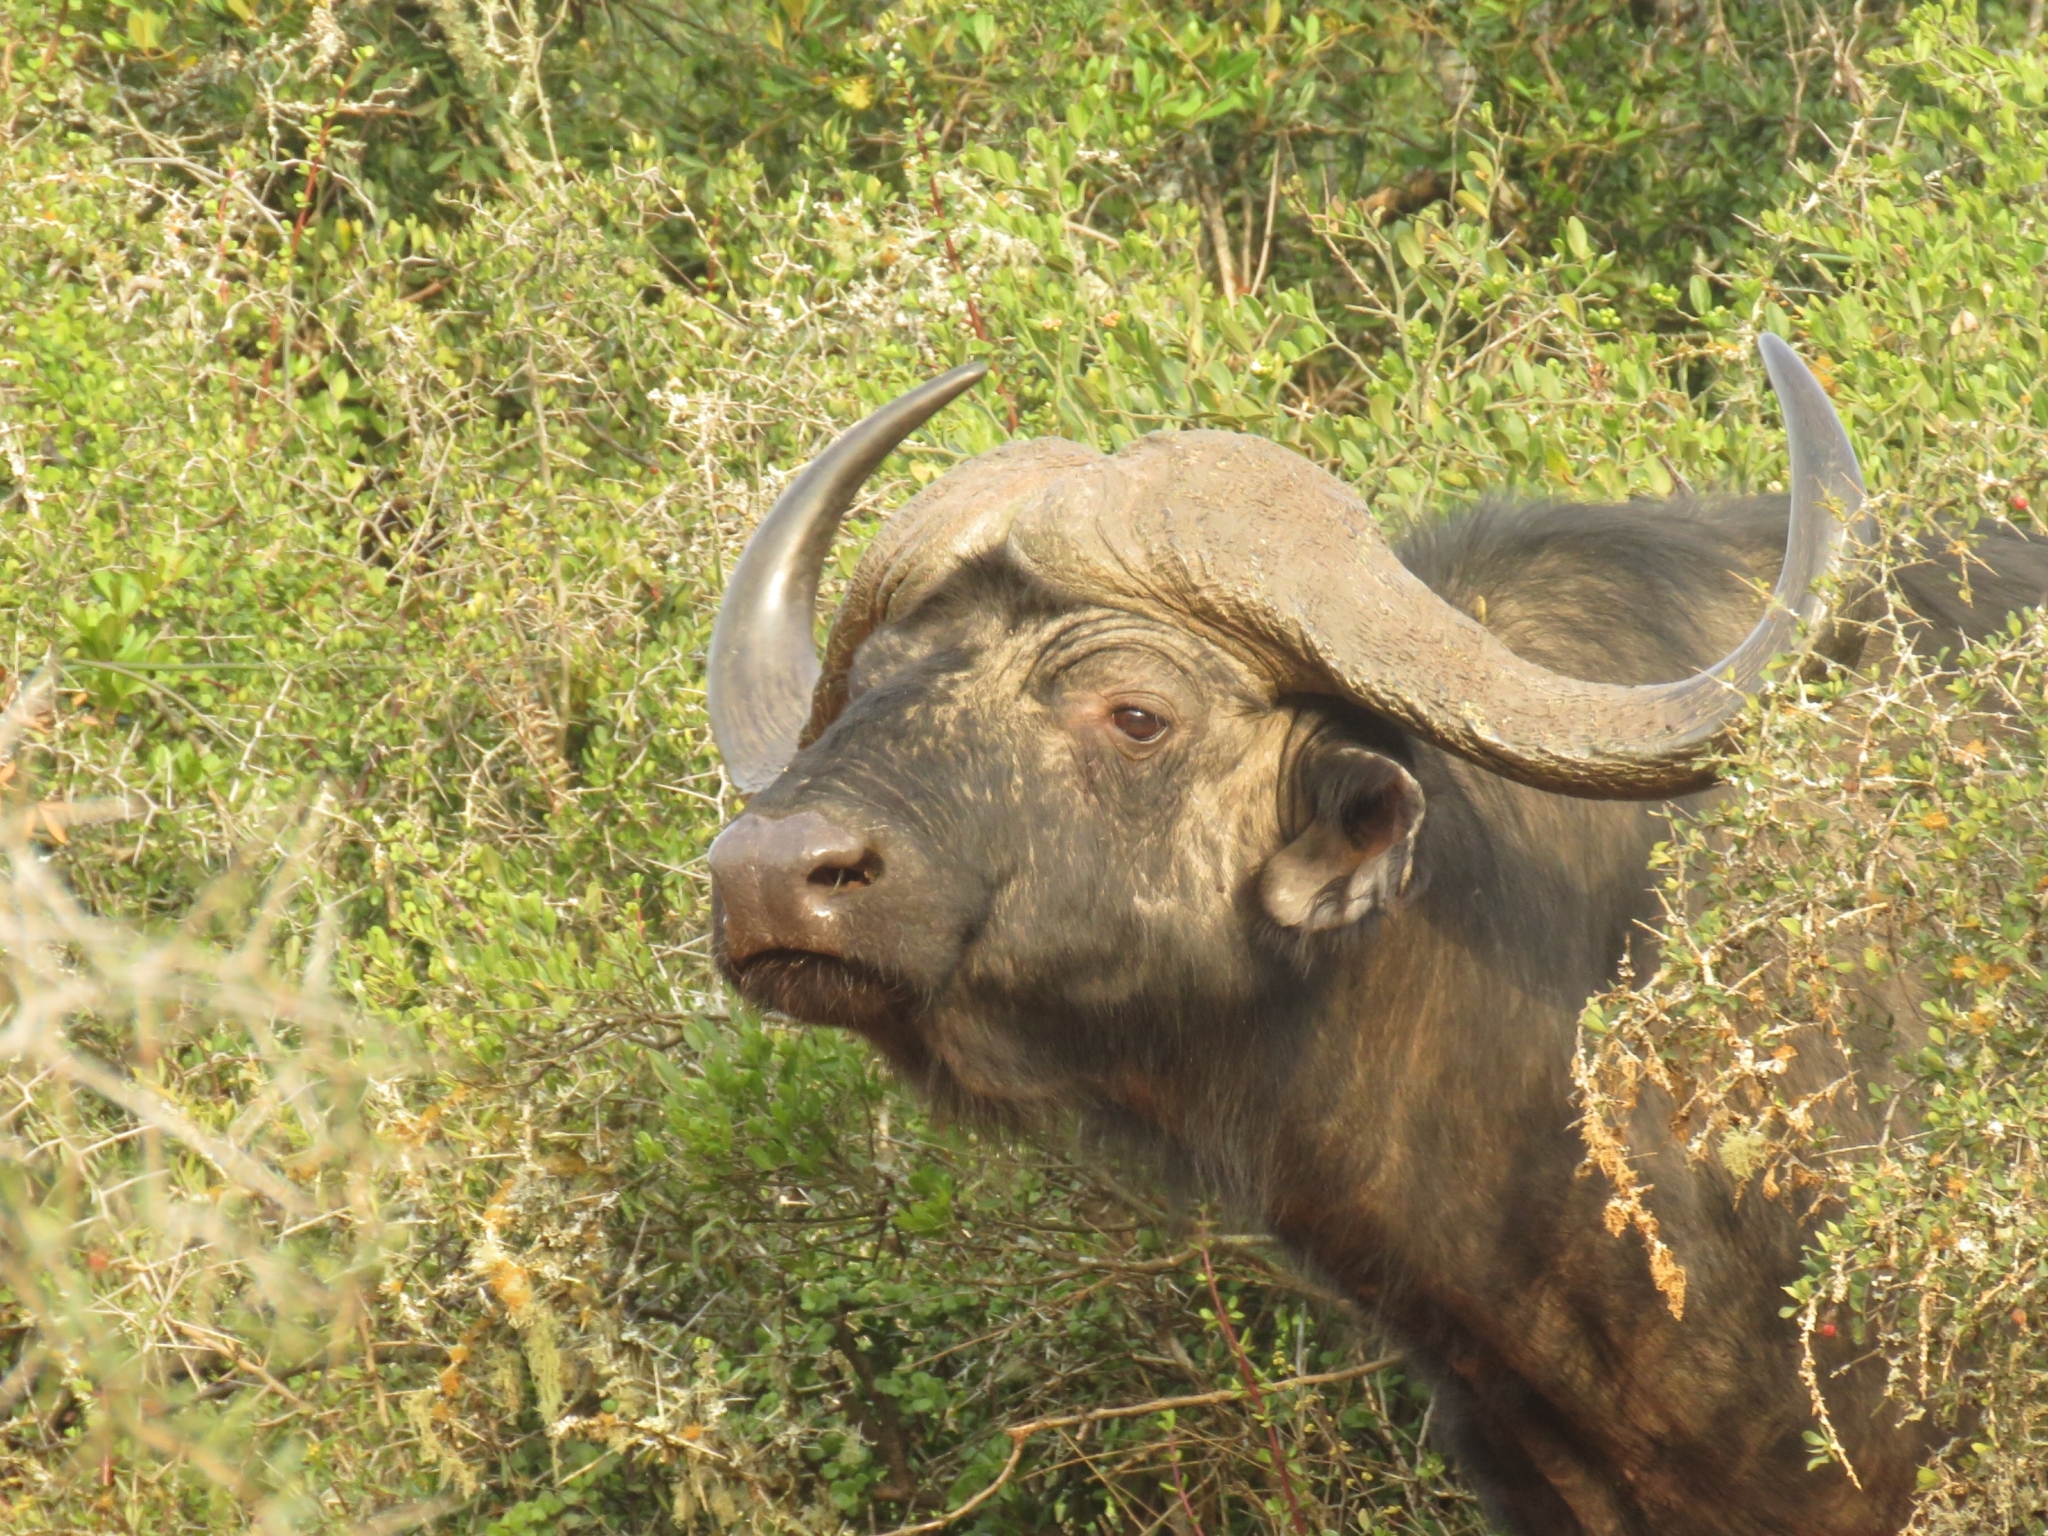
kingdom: Animalia
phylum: Chordata
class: Mammalia
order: Artiodactyla
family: Bovidae
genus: Syncerus
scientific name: Syncerus caffer
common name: African buffalo
